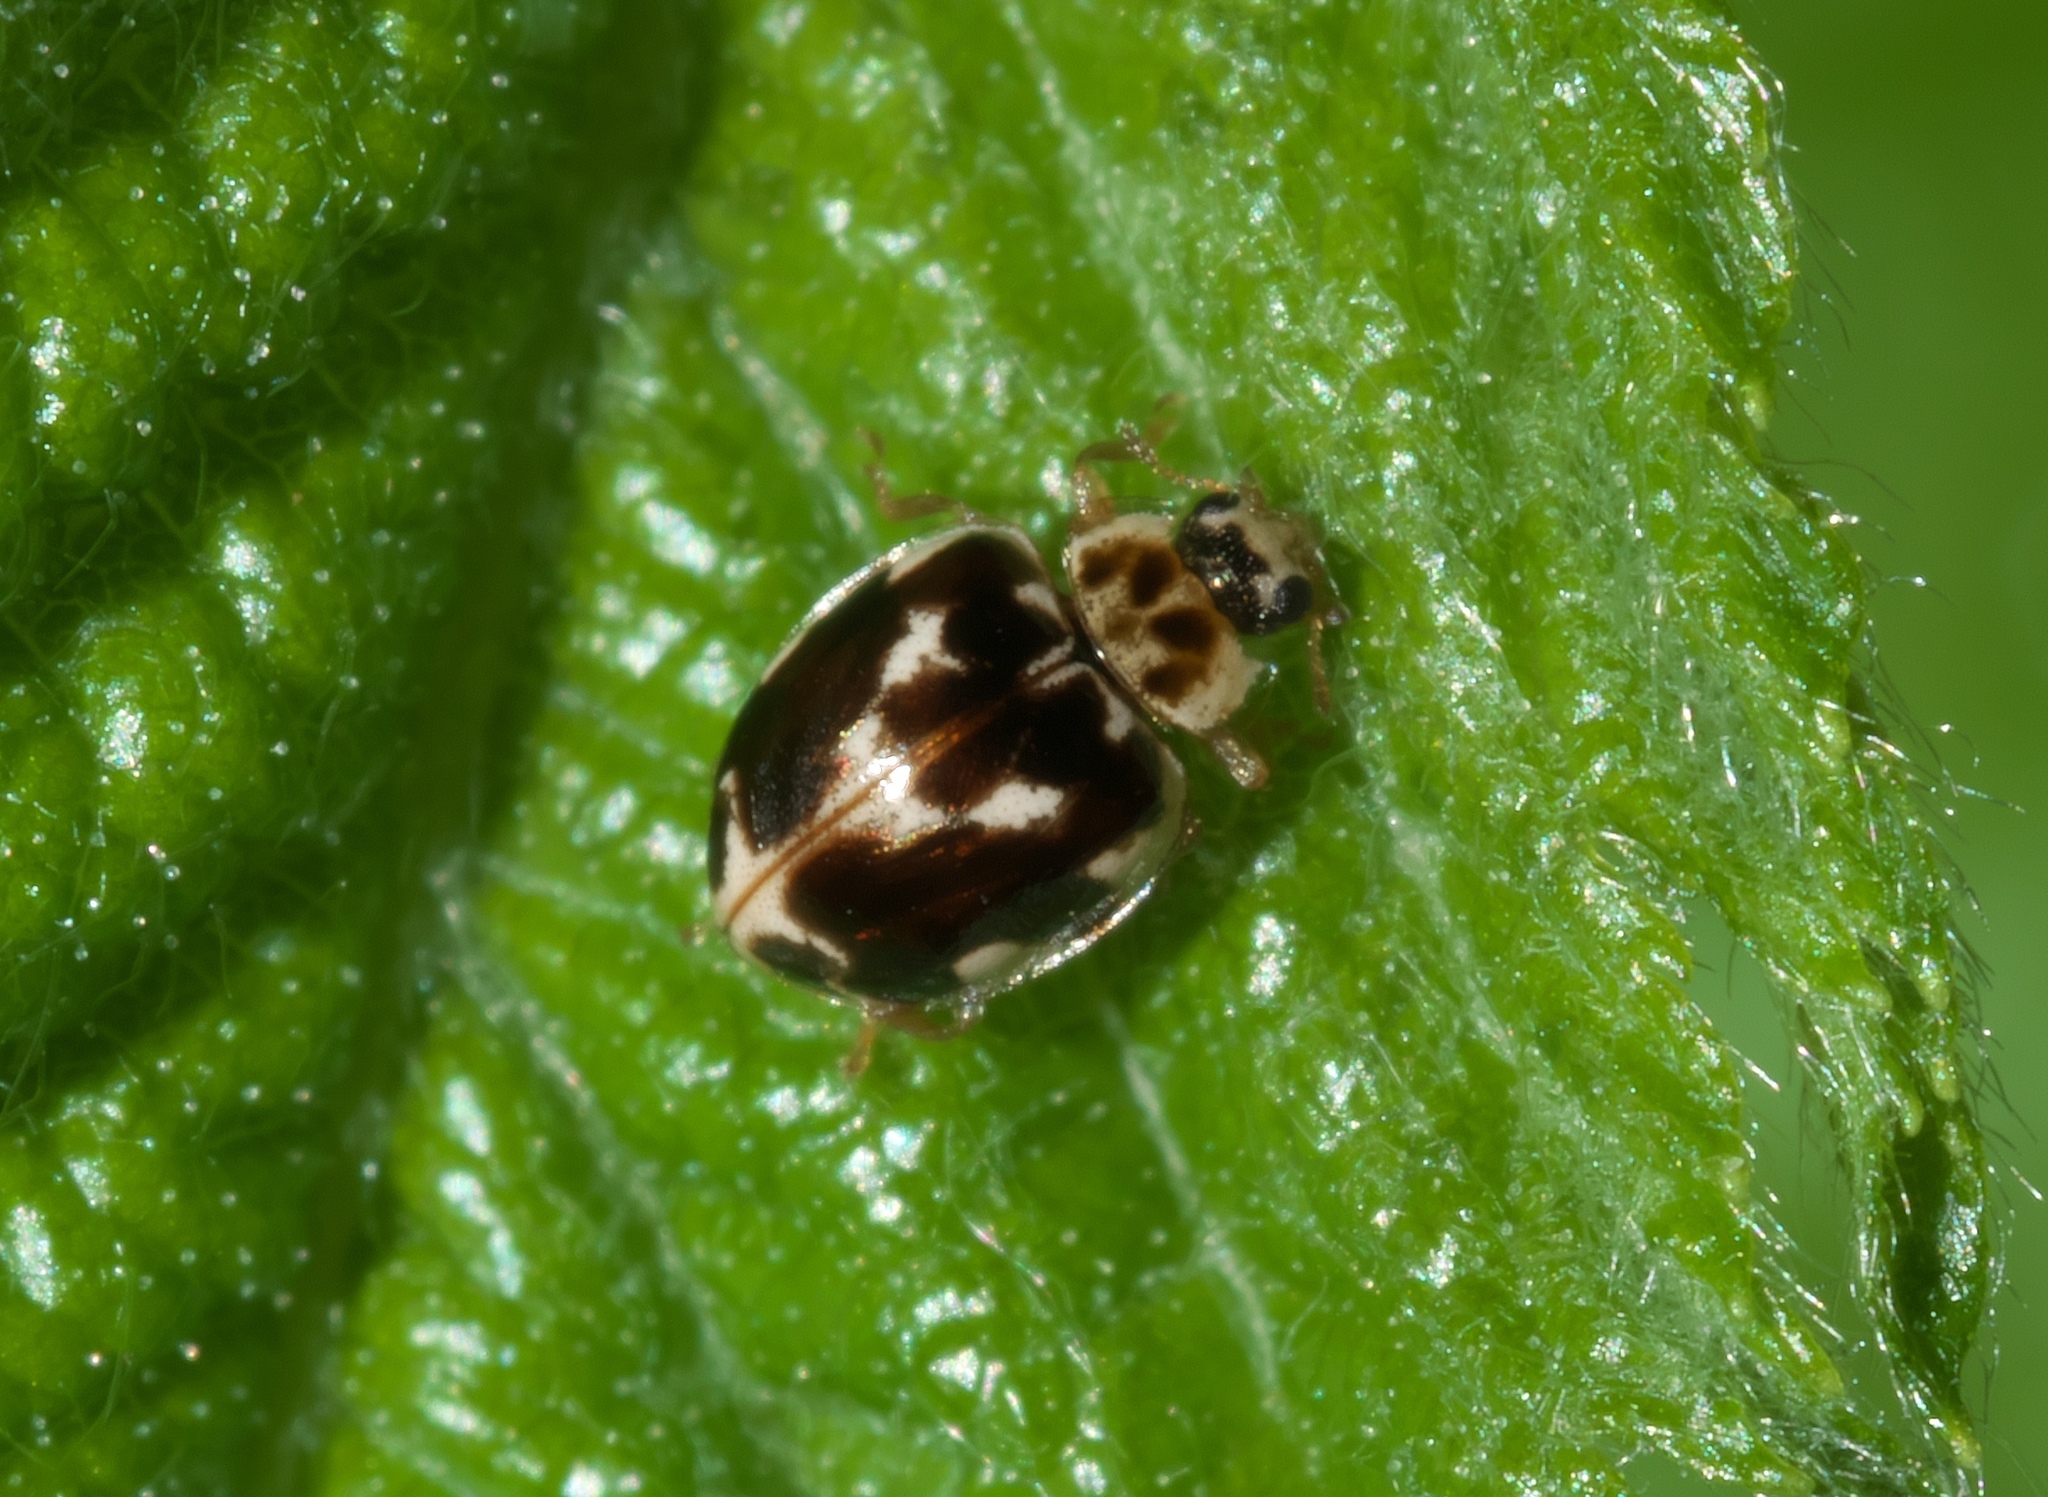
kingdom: Animalia
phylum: Arthropoda
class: Insecta
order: Coleoptera
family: Coccinellidae
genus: Psyllobora
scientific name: Psyllobora vigintimaculata
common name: Ladybird beetle
